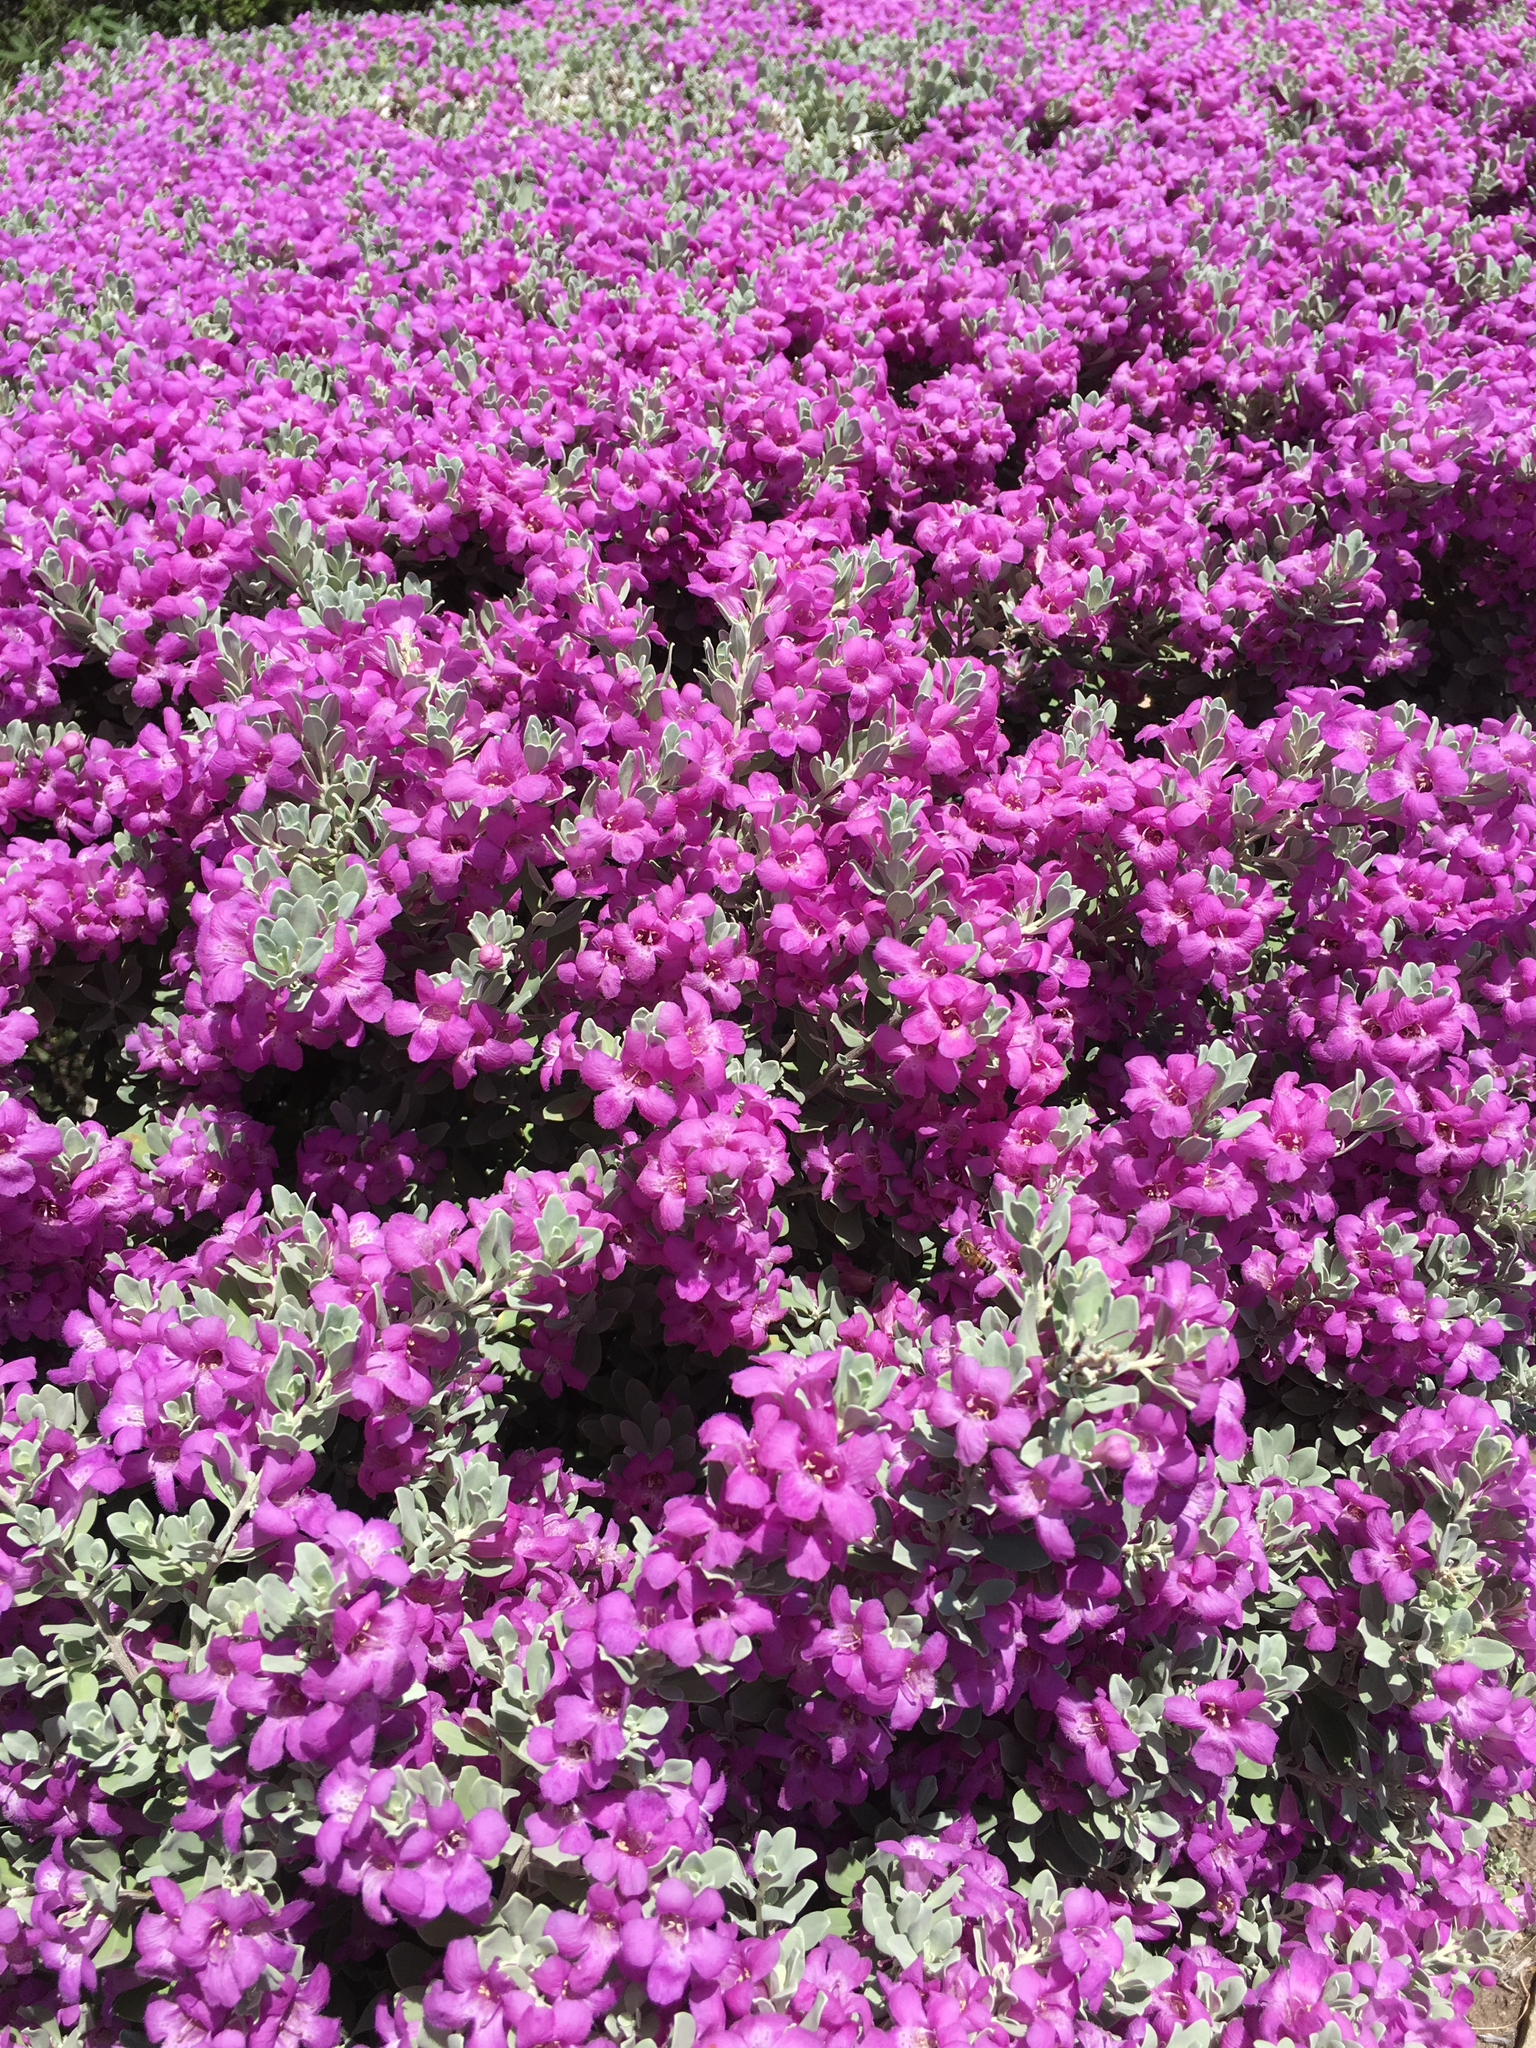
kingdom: Plantae
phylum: Tracheophyta
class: Magnoliopsida
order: Lamiales
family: Scrophulariaceae
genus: Leucophyllum
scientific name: Leucophyllum frutescens
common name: Texas silverleaf
